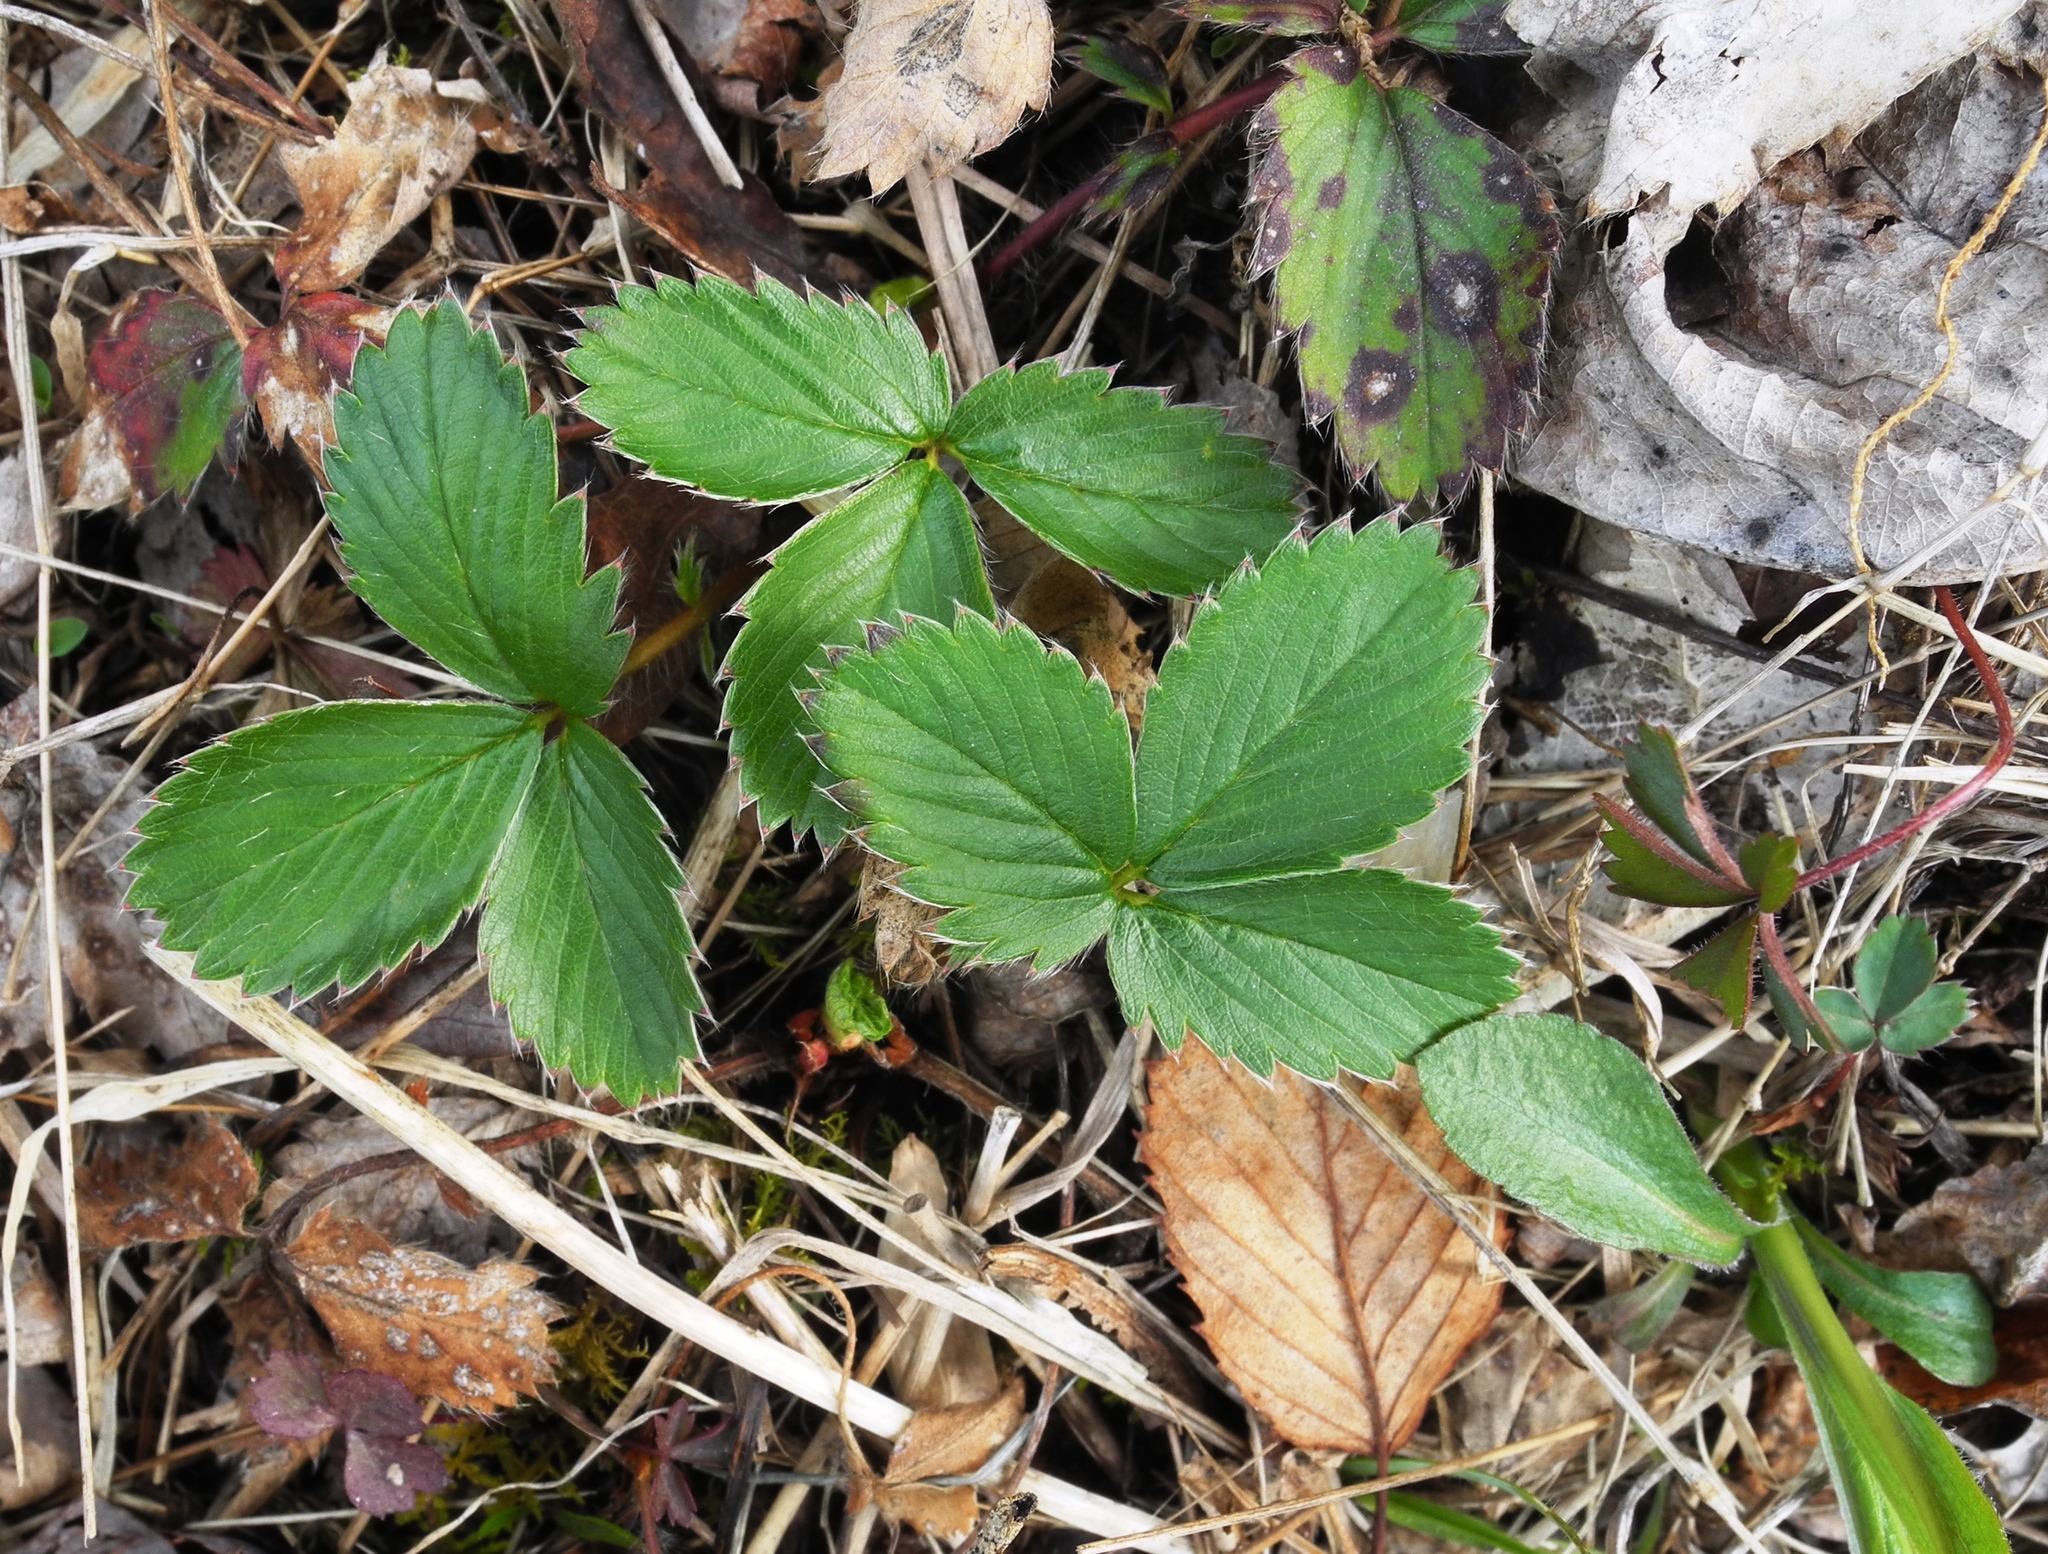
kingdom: Plantae
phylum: Tracheophyta
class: Magnoliopsida
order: Rosales
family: Rosaceae
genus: Fragaria
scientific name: Fragaria virginiana
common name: Thickleaved wild strawberry
